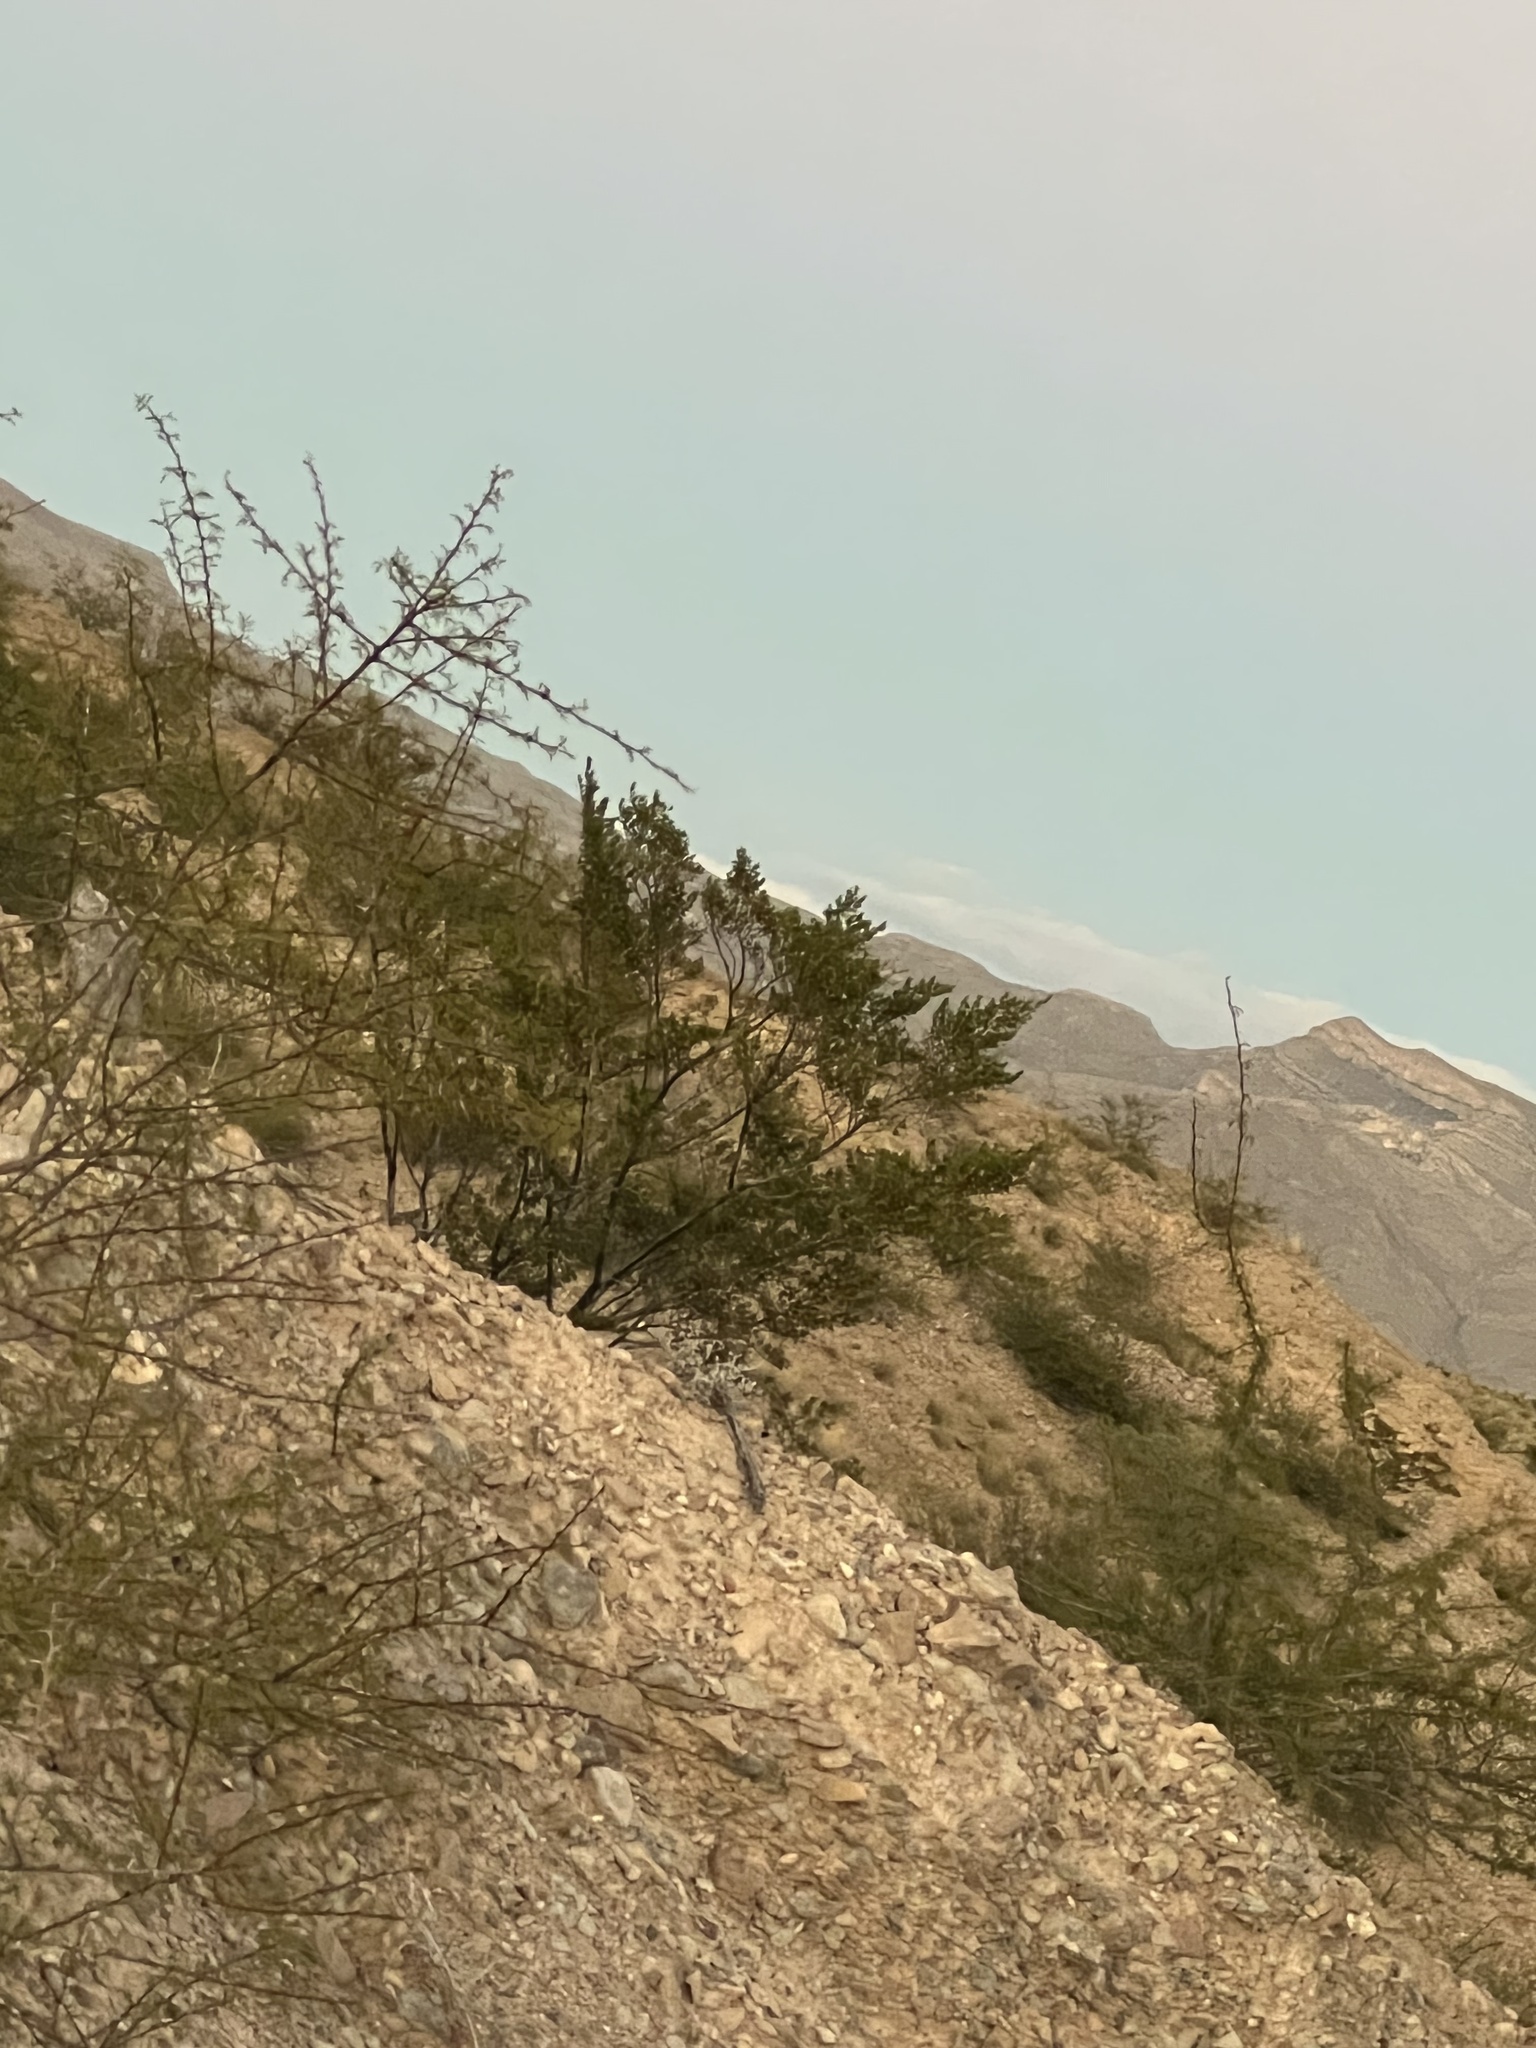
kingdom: Plantae
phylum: Tracheophyta
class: Magnoliopsida
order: Zygophyllales
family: Zygophyllaceae
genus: Larrea
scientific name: Larrea tridentata
